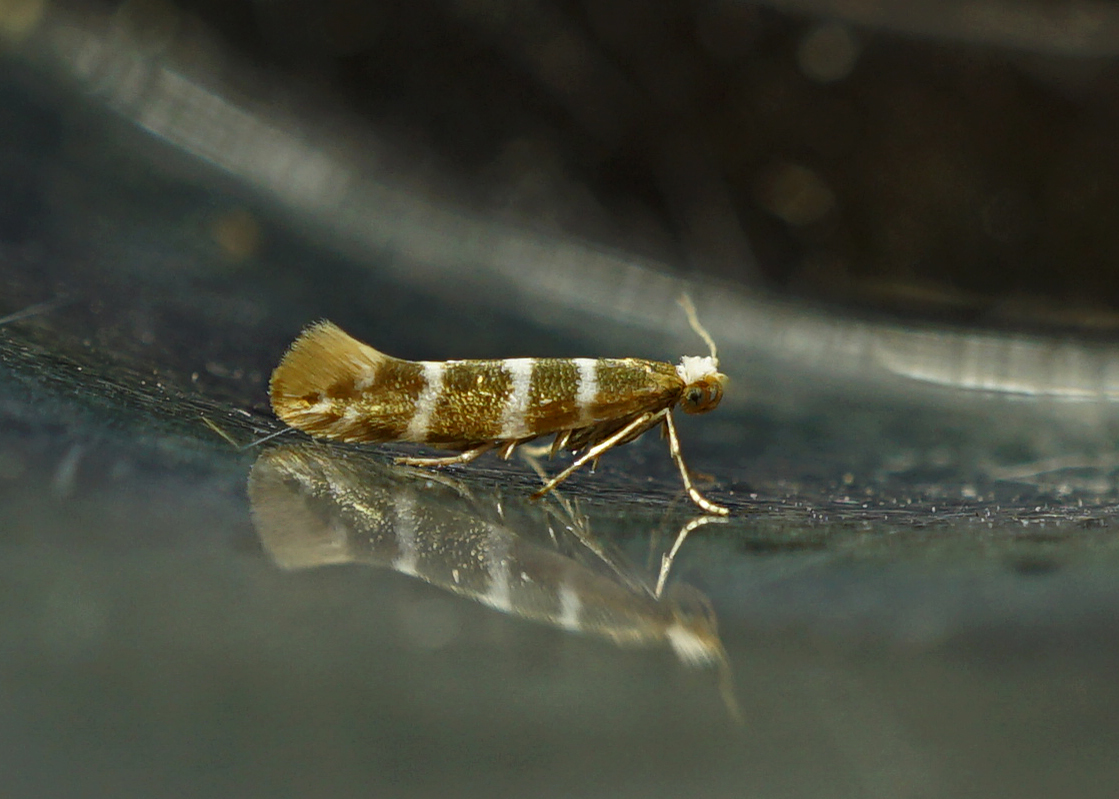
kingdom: Animalia
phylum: Arthropoda
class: Insecta
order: Lepidoptera
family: Argyresthiidae
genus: Argyresthia
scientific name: Argyresthia trifasciata
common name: Triple-barred argent
